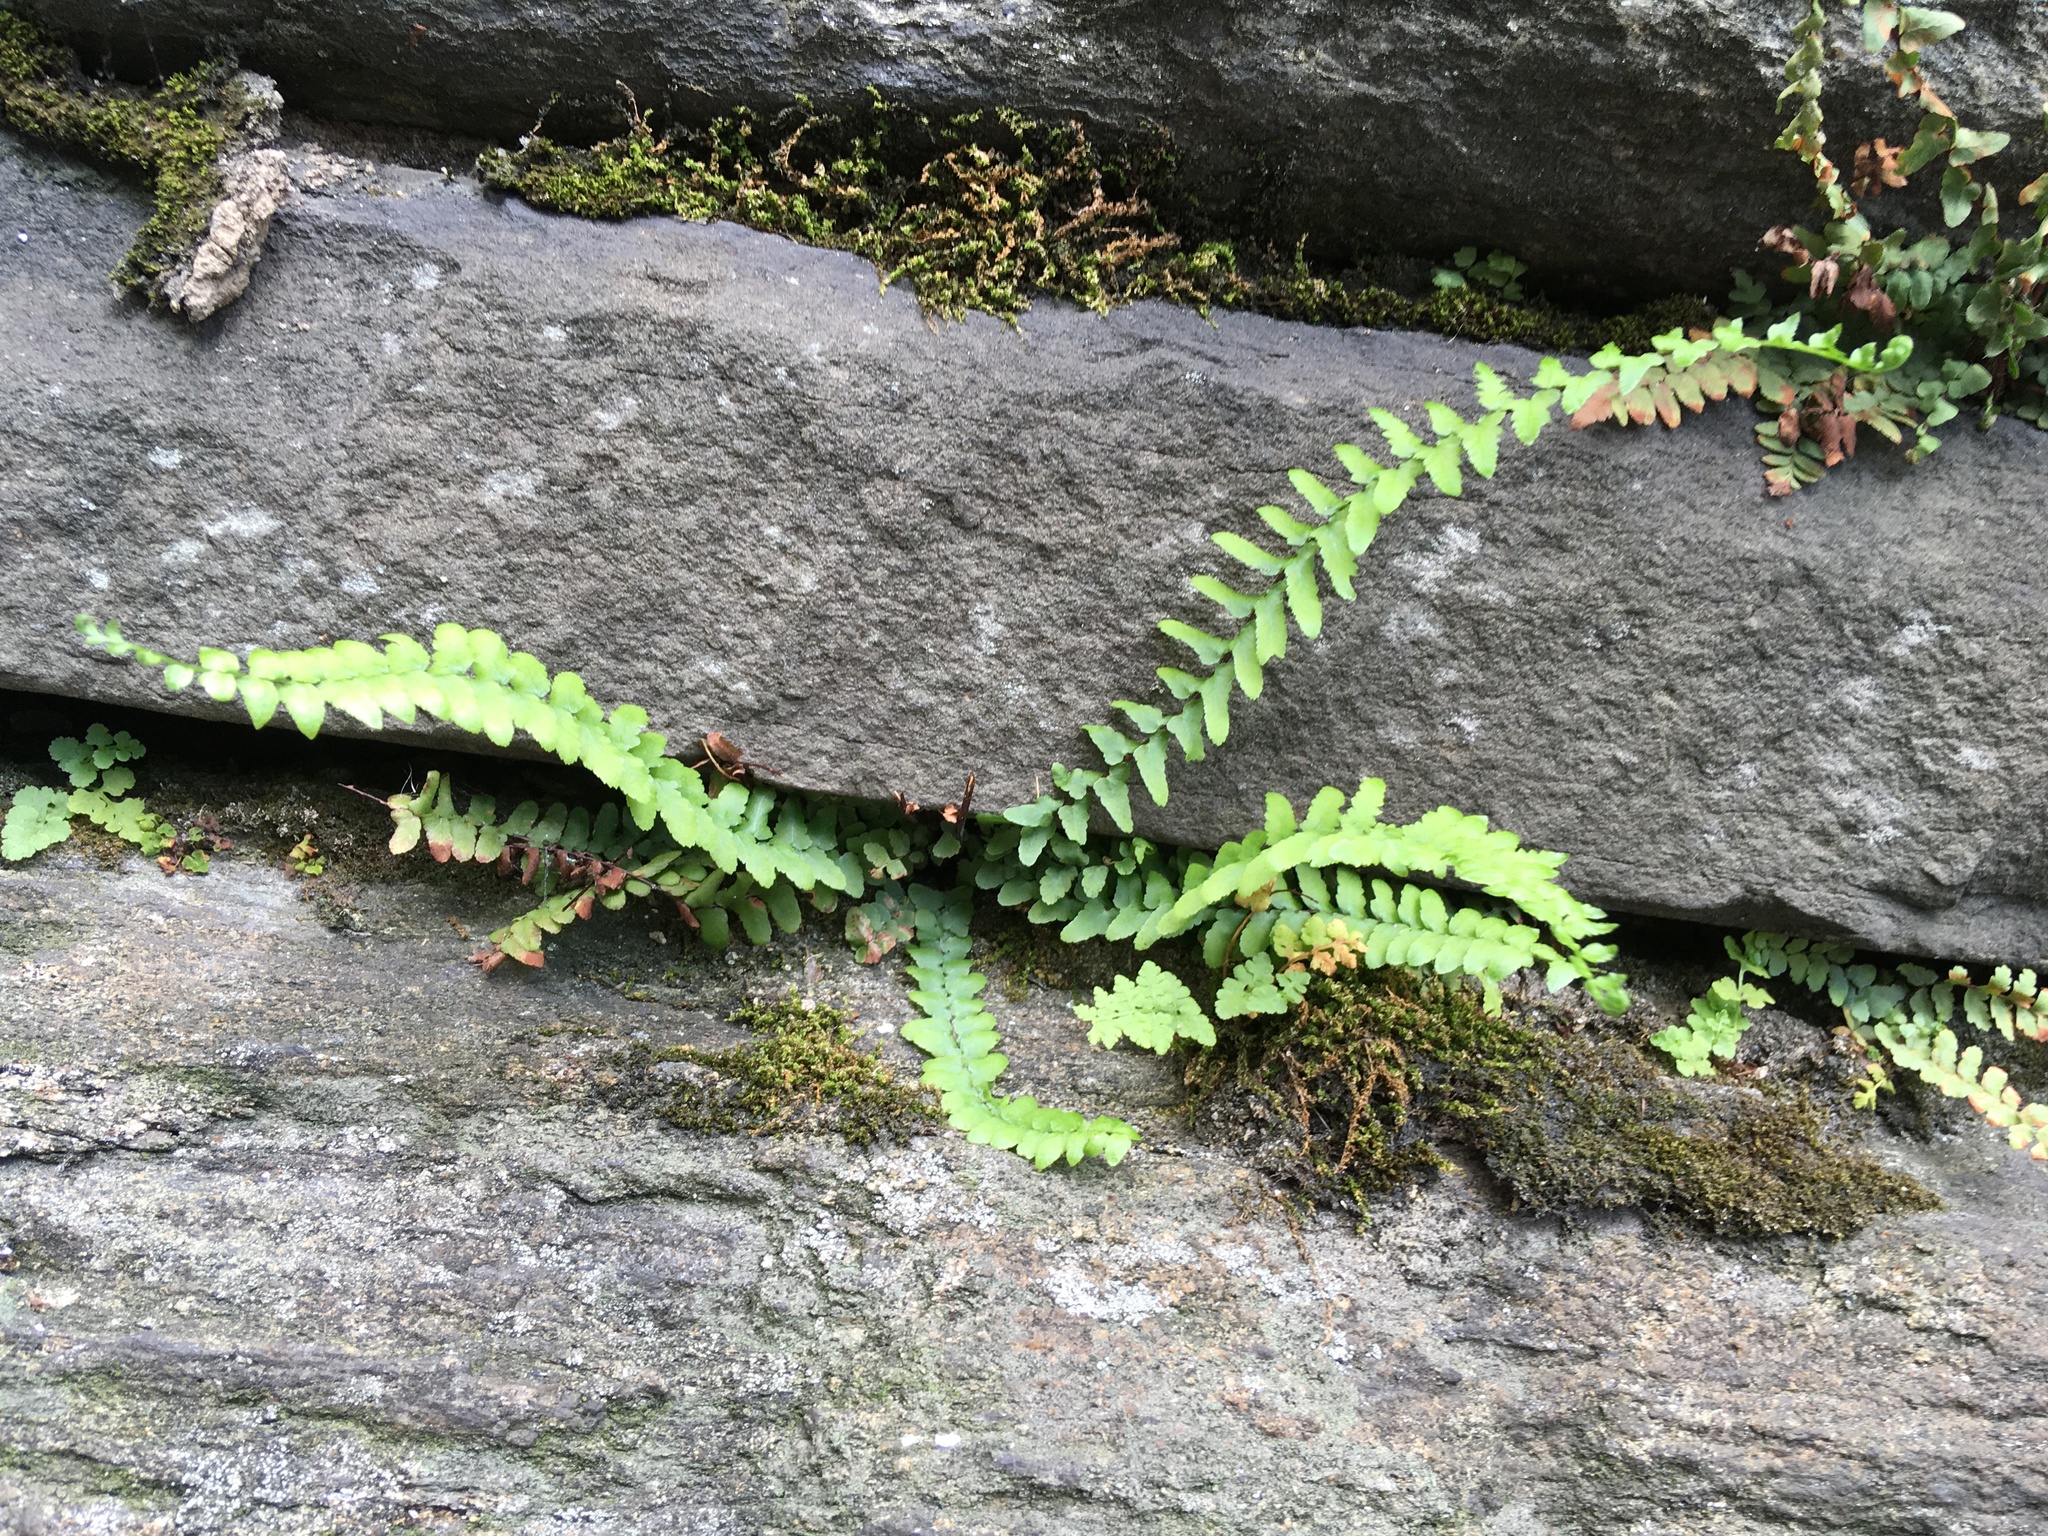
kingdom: Plantae
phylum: Tracheophyta
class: Polypodiopsida
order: Polypodiales
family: Aspleniaceae
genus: Asplenium
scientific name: Asplenium platyneuron
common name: Ebony spleenwort
